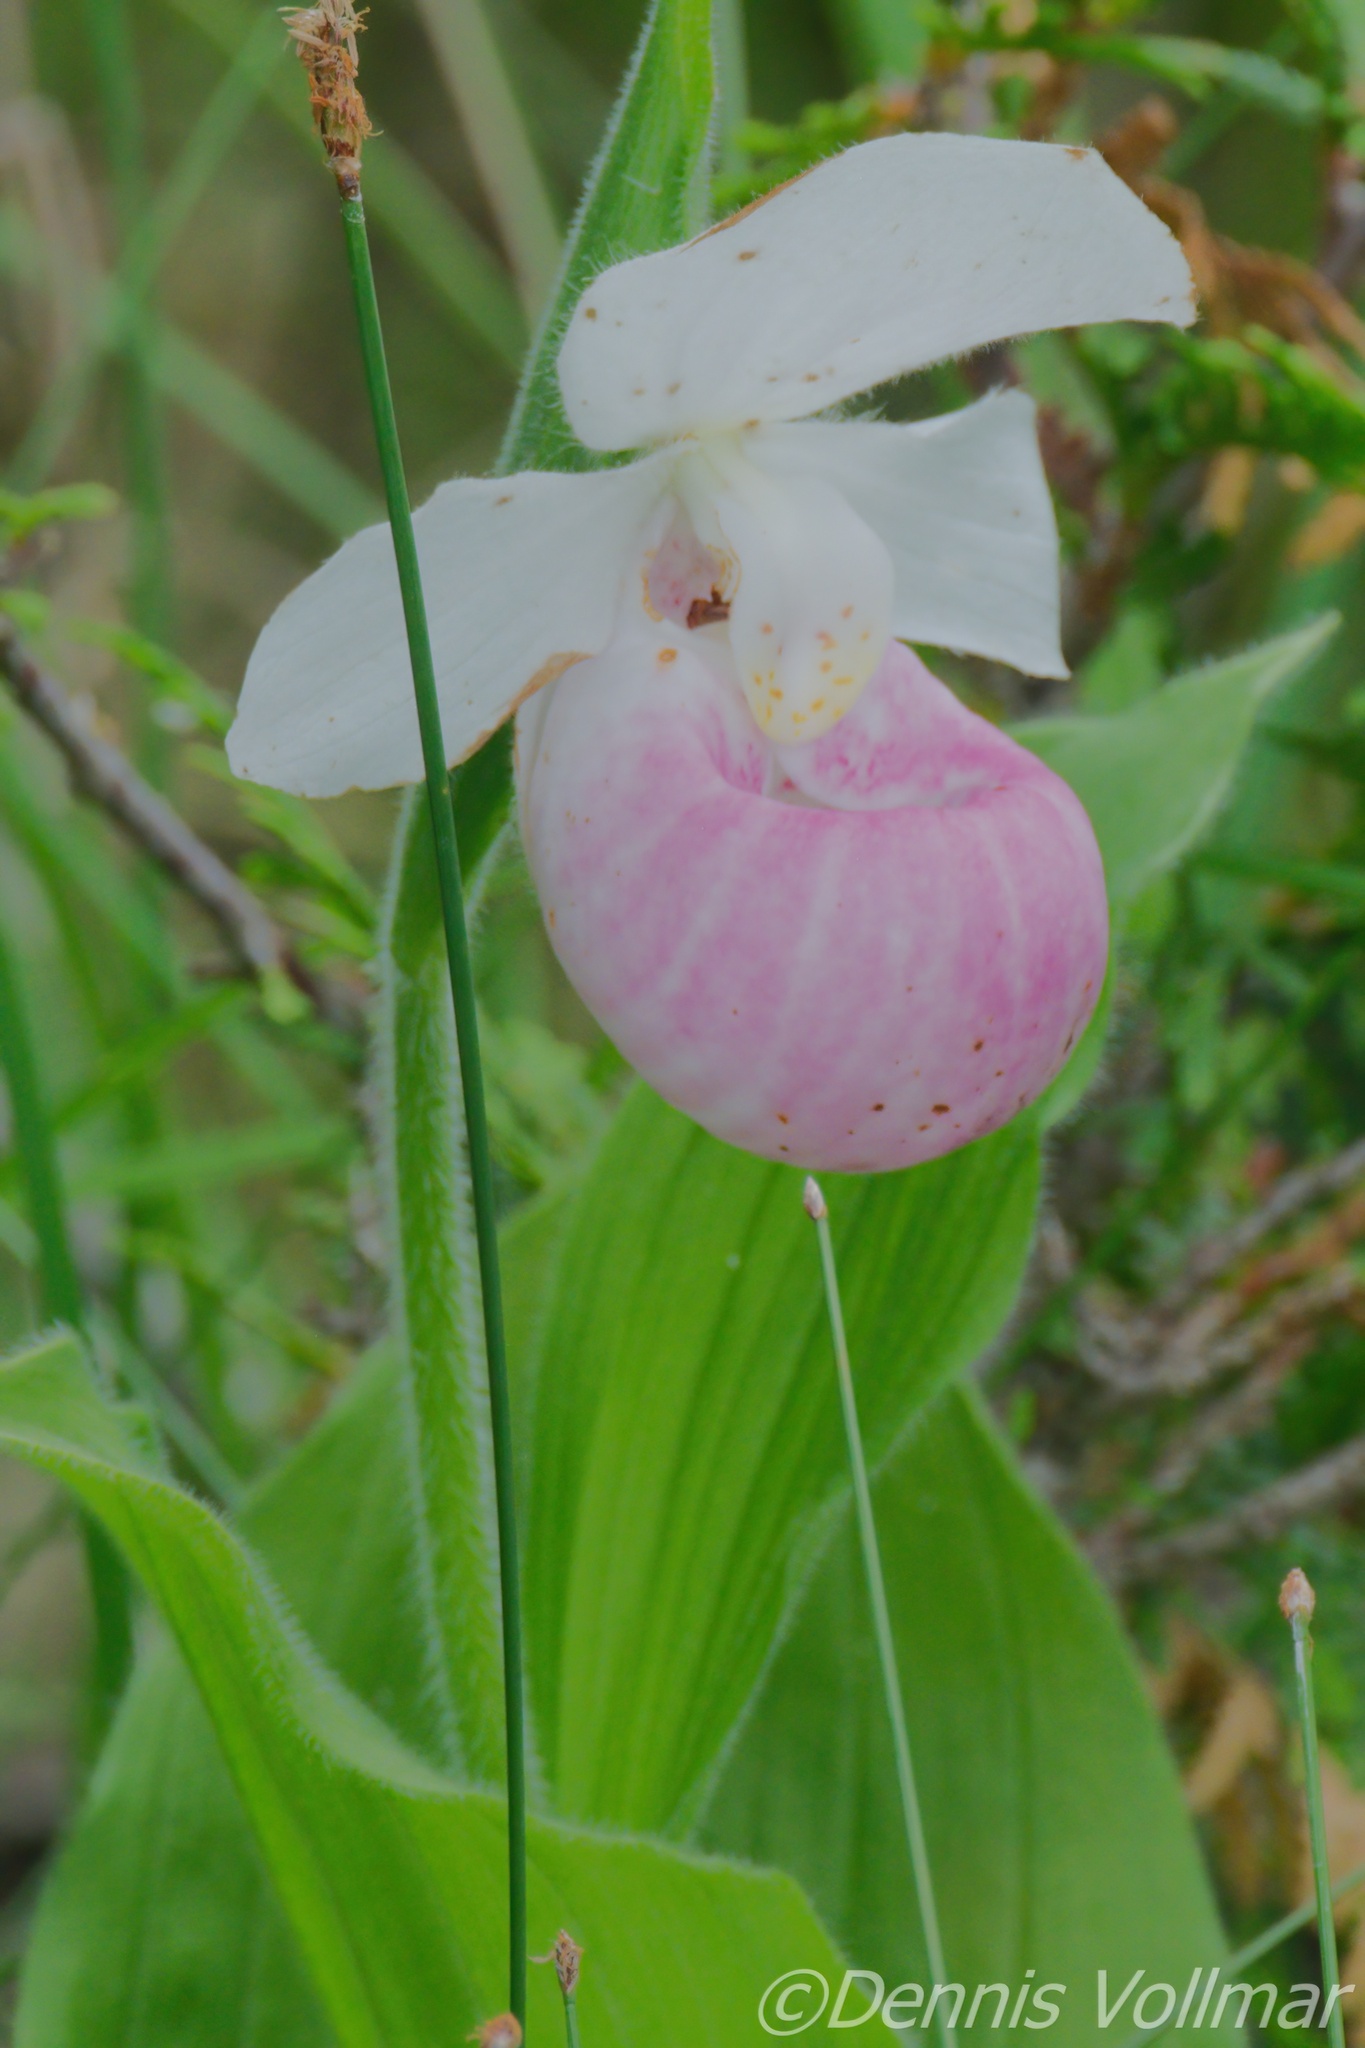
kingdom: Plantae
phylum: Tracheophyta
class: Liliopsida
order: Asparagales
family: Orchidaceae
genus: Cypripedium
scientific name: Cypripedium reginae
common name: Queen lady's-slipper
